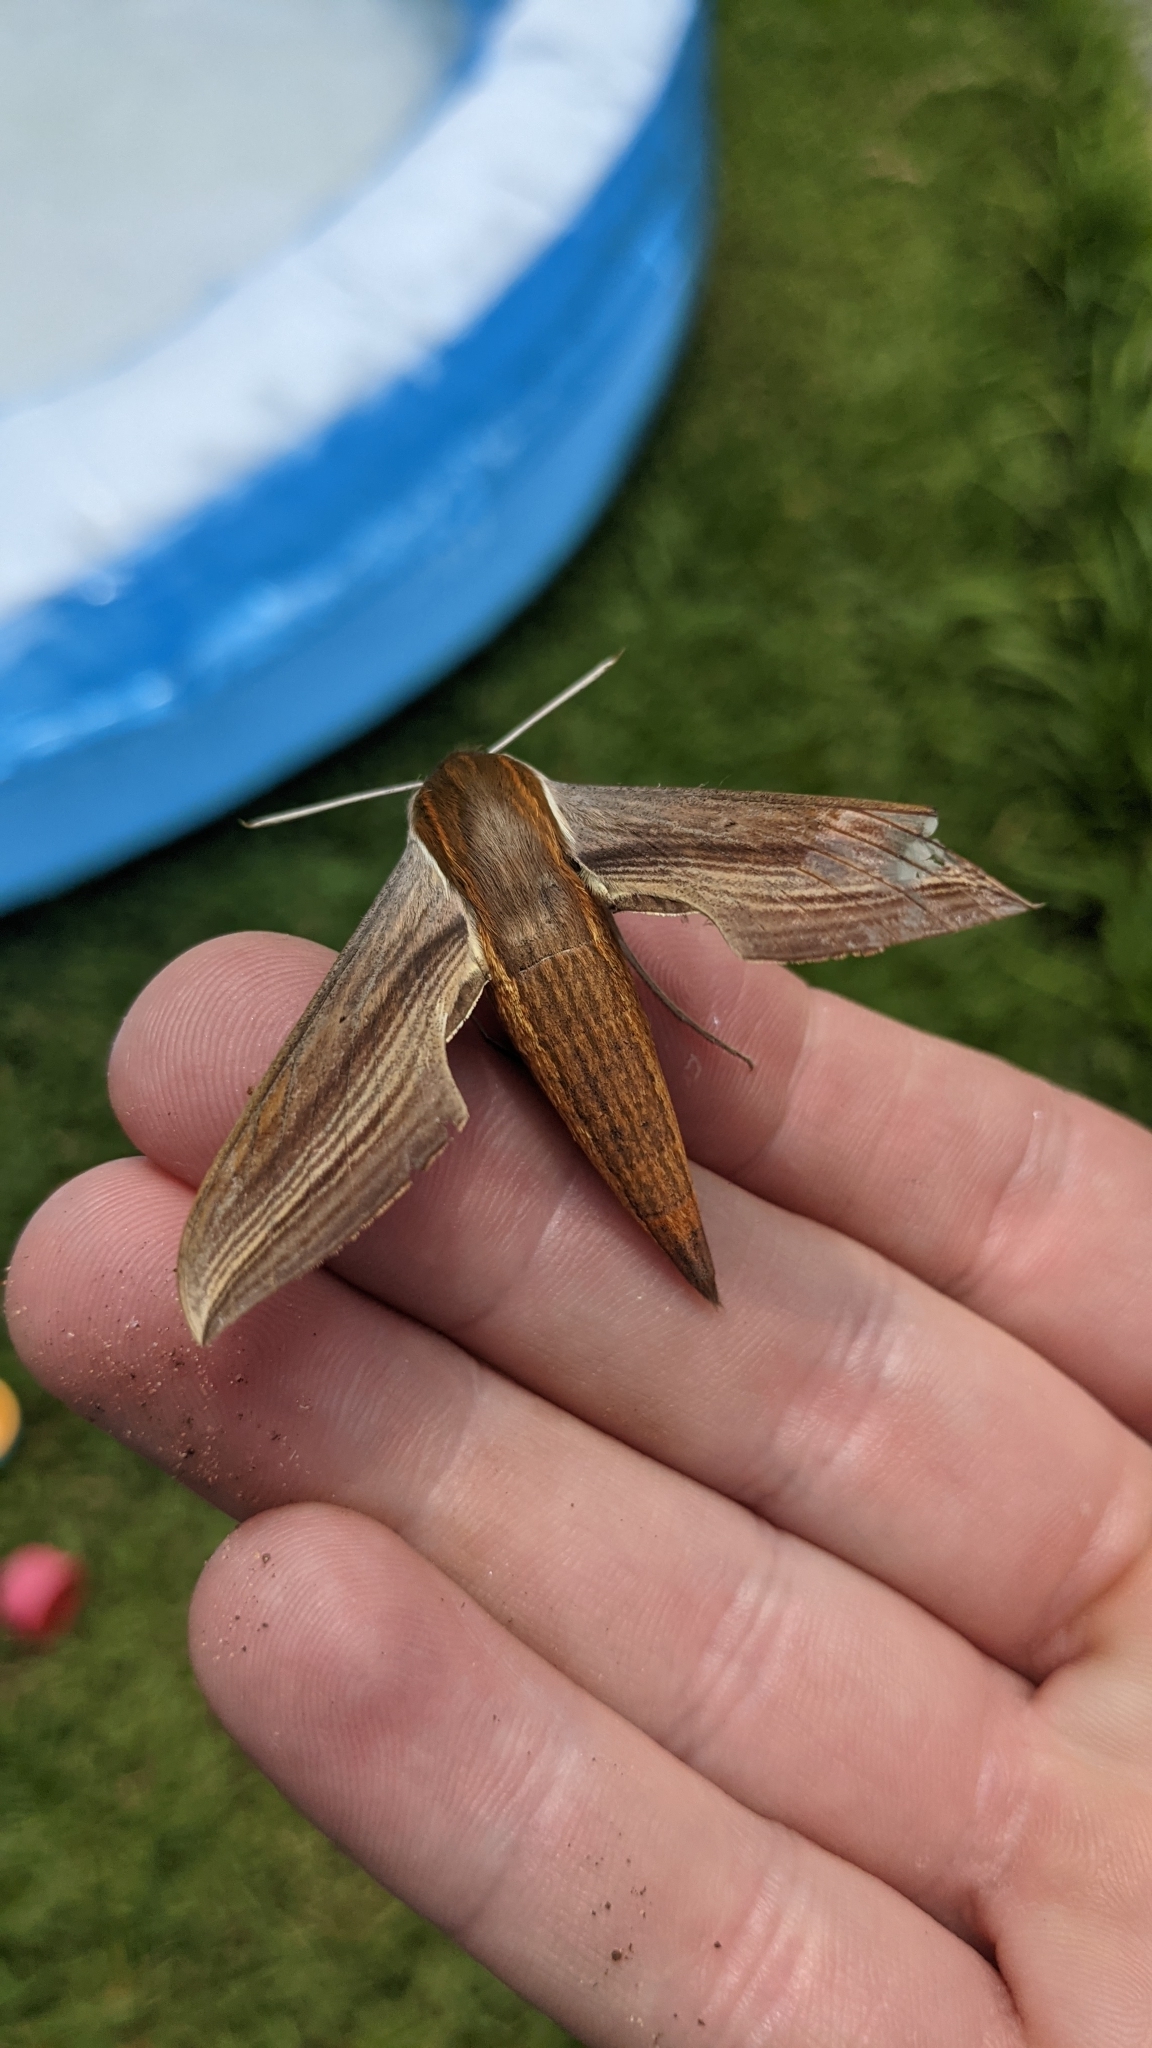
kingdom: Animalia
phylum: Arthropoda
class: Insecta
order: Lepidoptera
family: Sphingidae
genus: Xylophanes
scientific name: Xylophanes tersa
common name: Tersa sphinx
